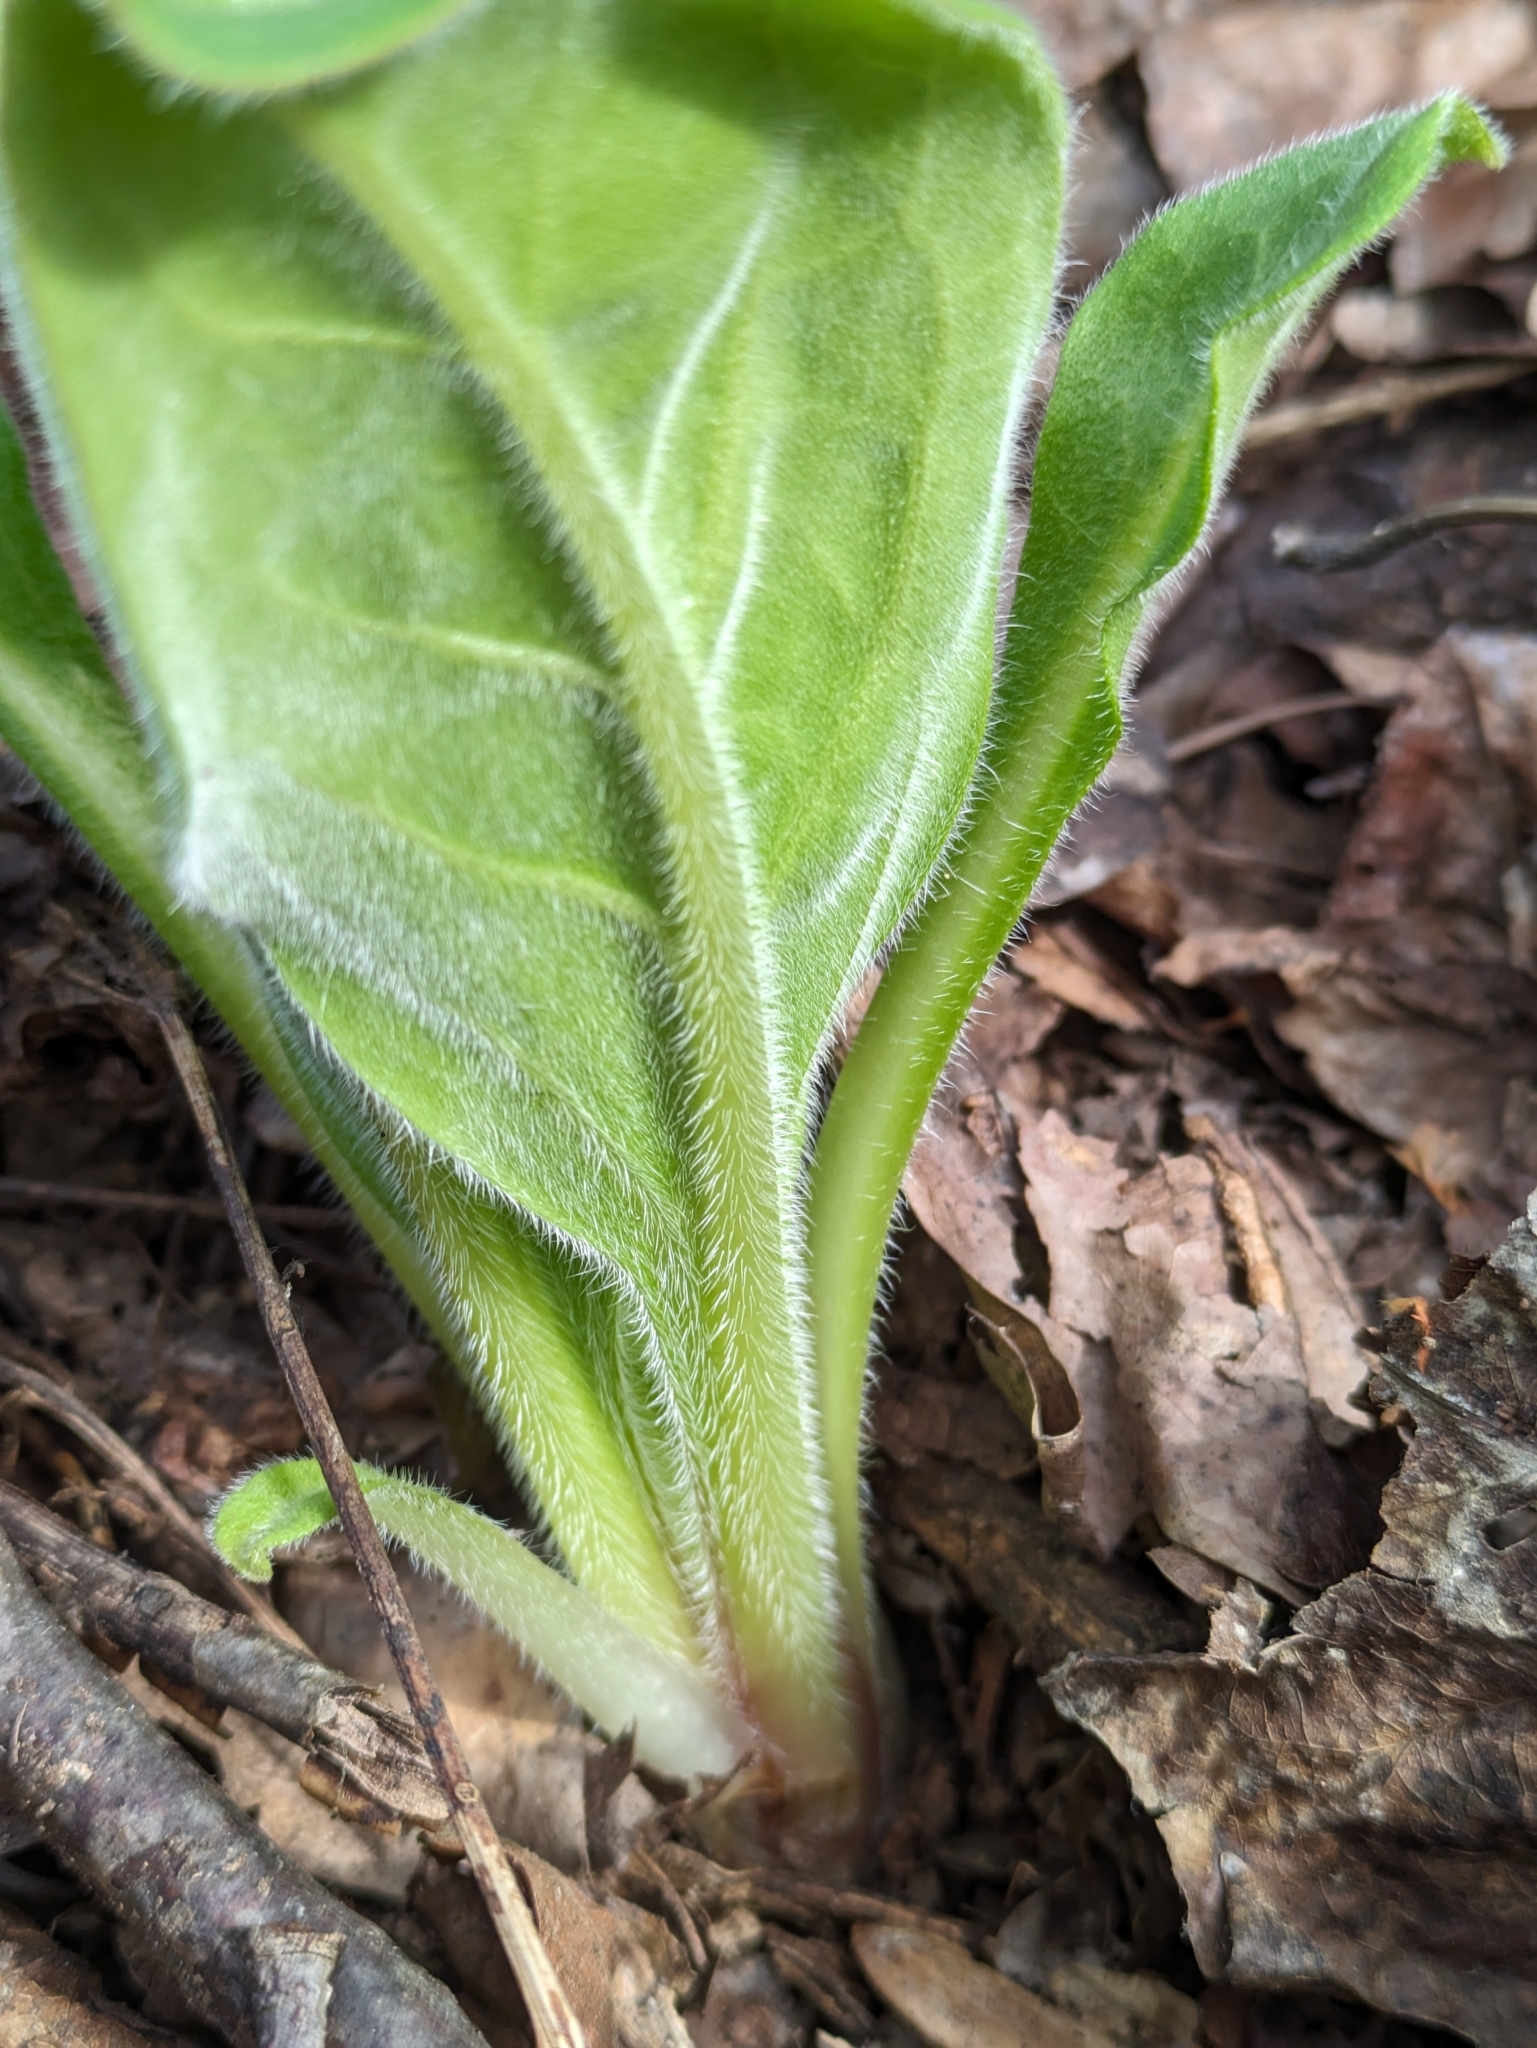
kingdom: Plantae
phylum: Tracheophyta
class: Magnoliopsida
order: Boraginales
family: Boraginaceae
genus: Andersonglossum
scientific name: Andersonglossum virginianum
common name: Wild comfrey
